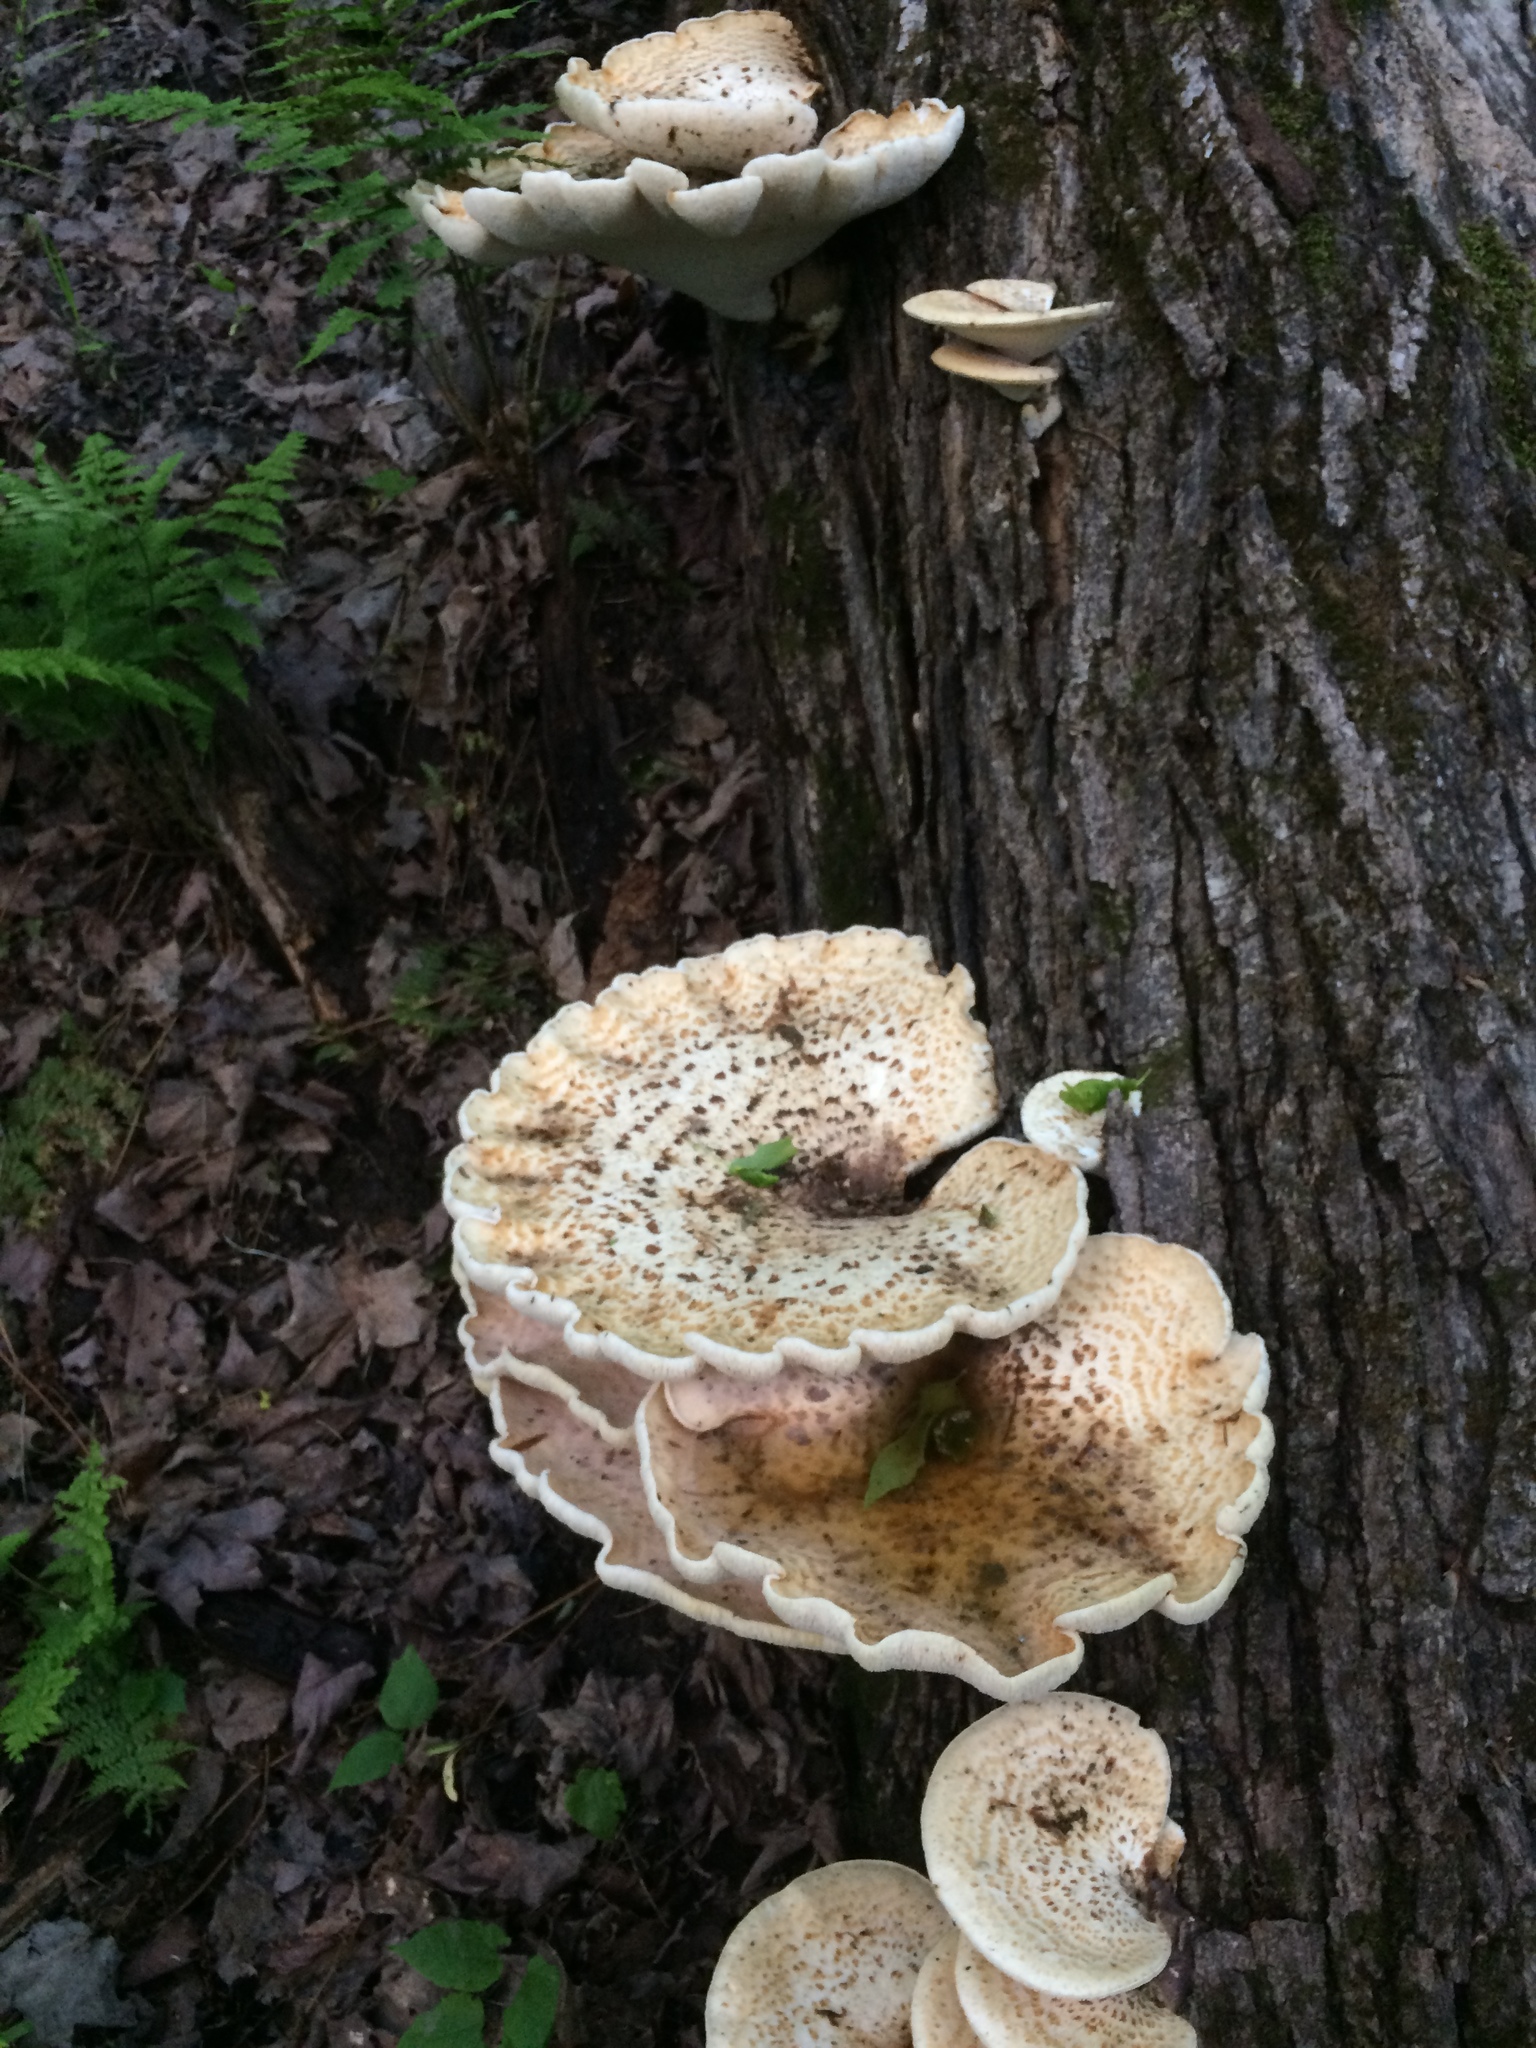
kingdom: Fungi
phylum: Basidiomycota
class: Agaricomycetes
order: Polyporales
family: Polyporaceae
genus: Cerioporus
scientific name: Cerioporus squamosus
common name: Dryad's saddle
